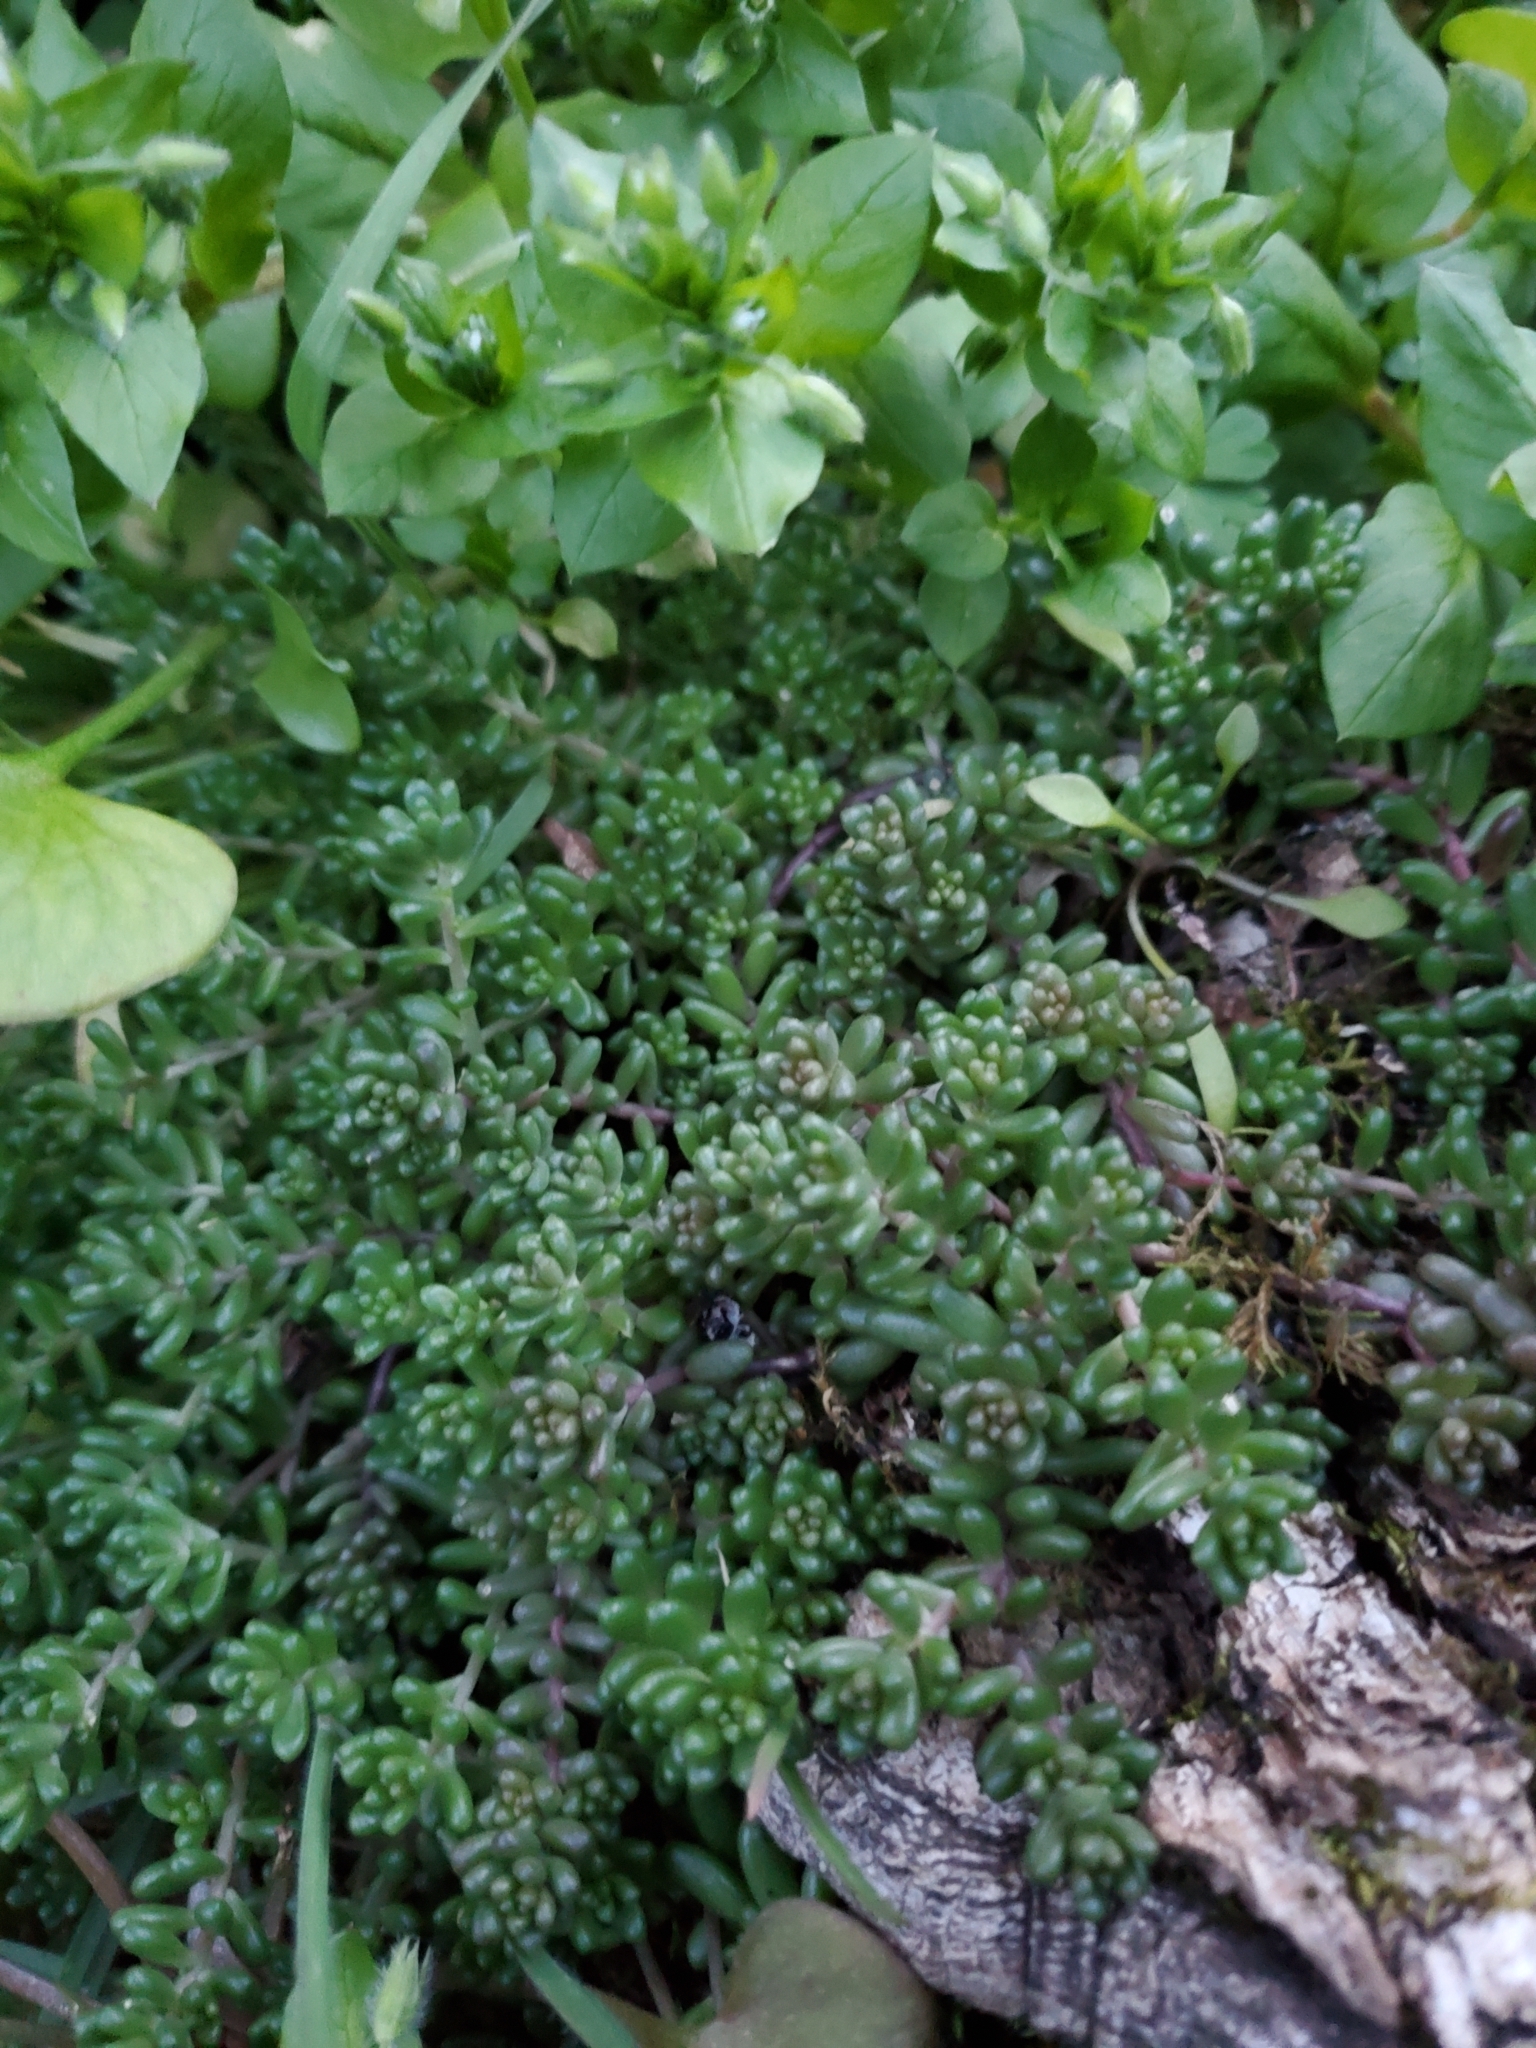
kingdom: Plantae
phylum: Tracheophyta
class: Magnoliopsida
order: Saxifragales
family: Crassulaceae
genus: Sedum
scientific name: Sedum album
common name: White stonecrop
